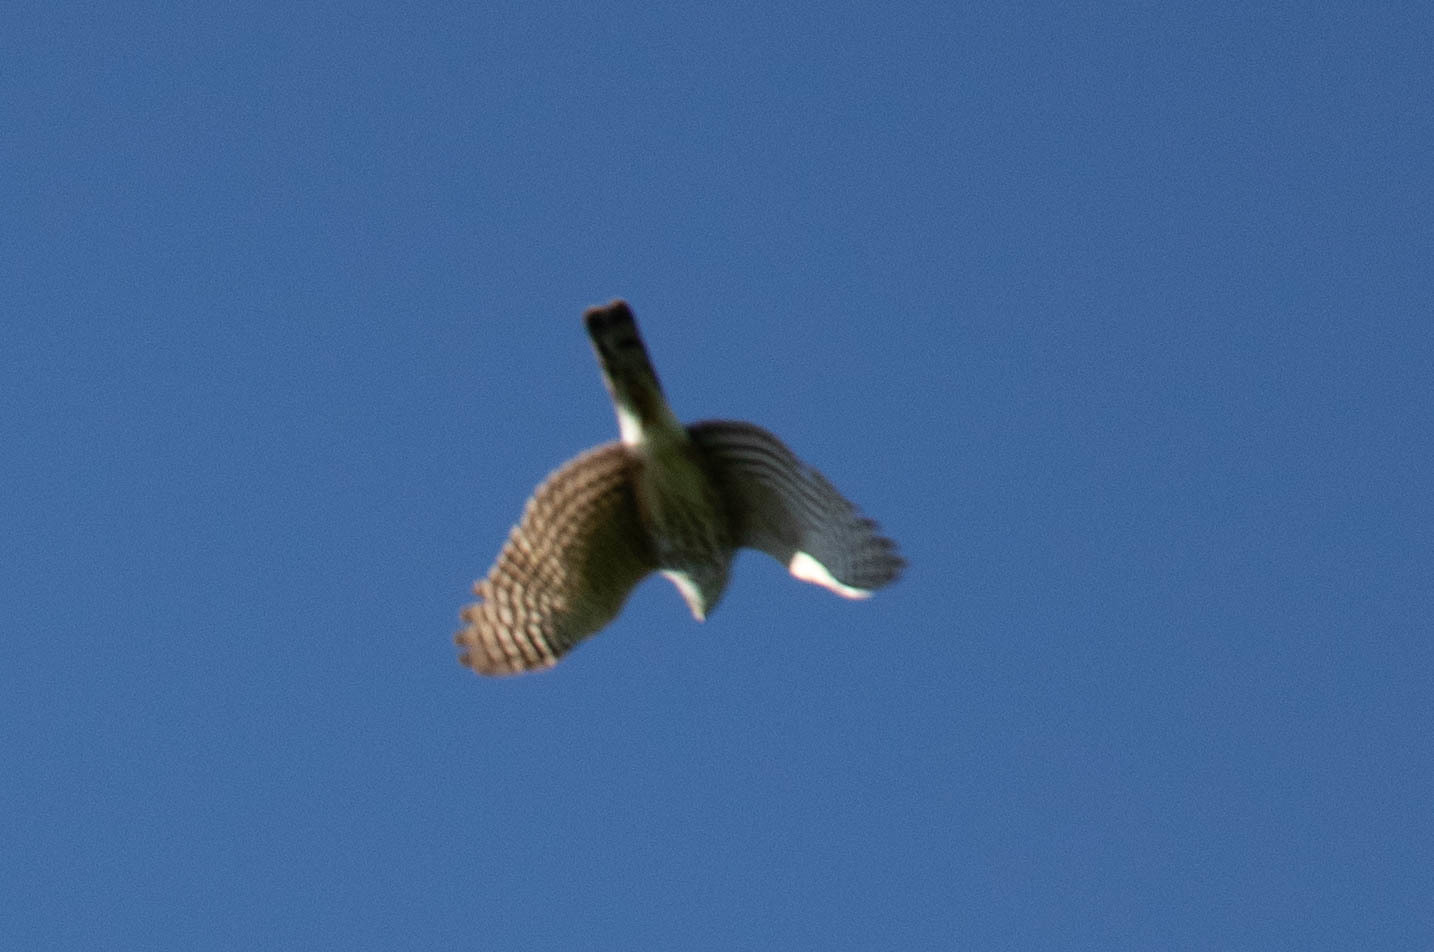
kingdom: Animalia
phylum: Chordata
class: Aves
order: Accipitriformes
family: Accipitridae
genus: Accipiter
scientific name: Accipiter striatus
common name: Sharp-shinned hawk
